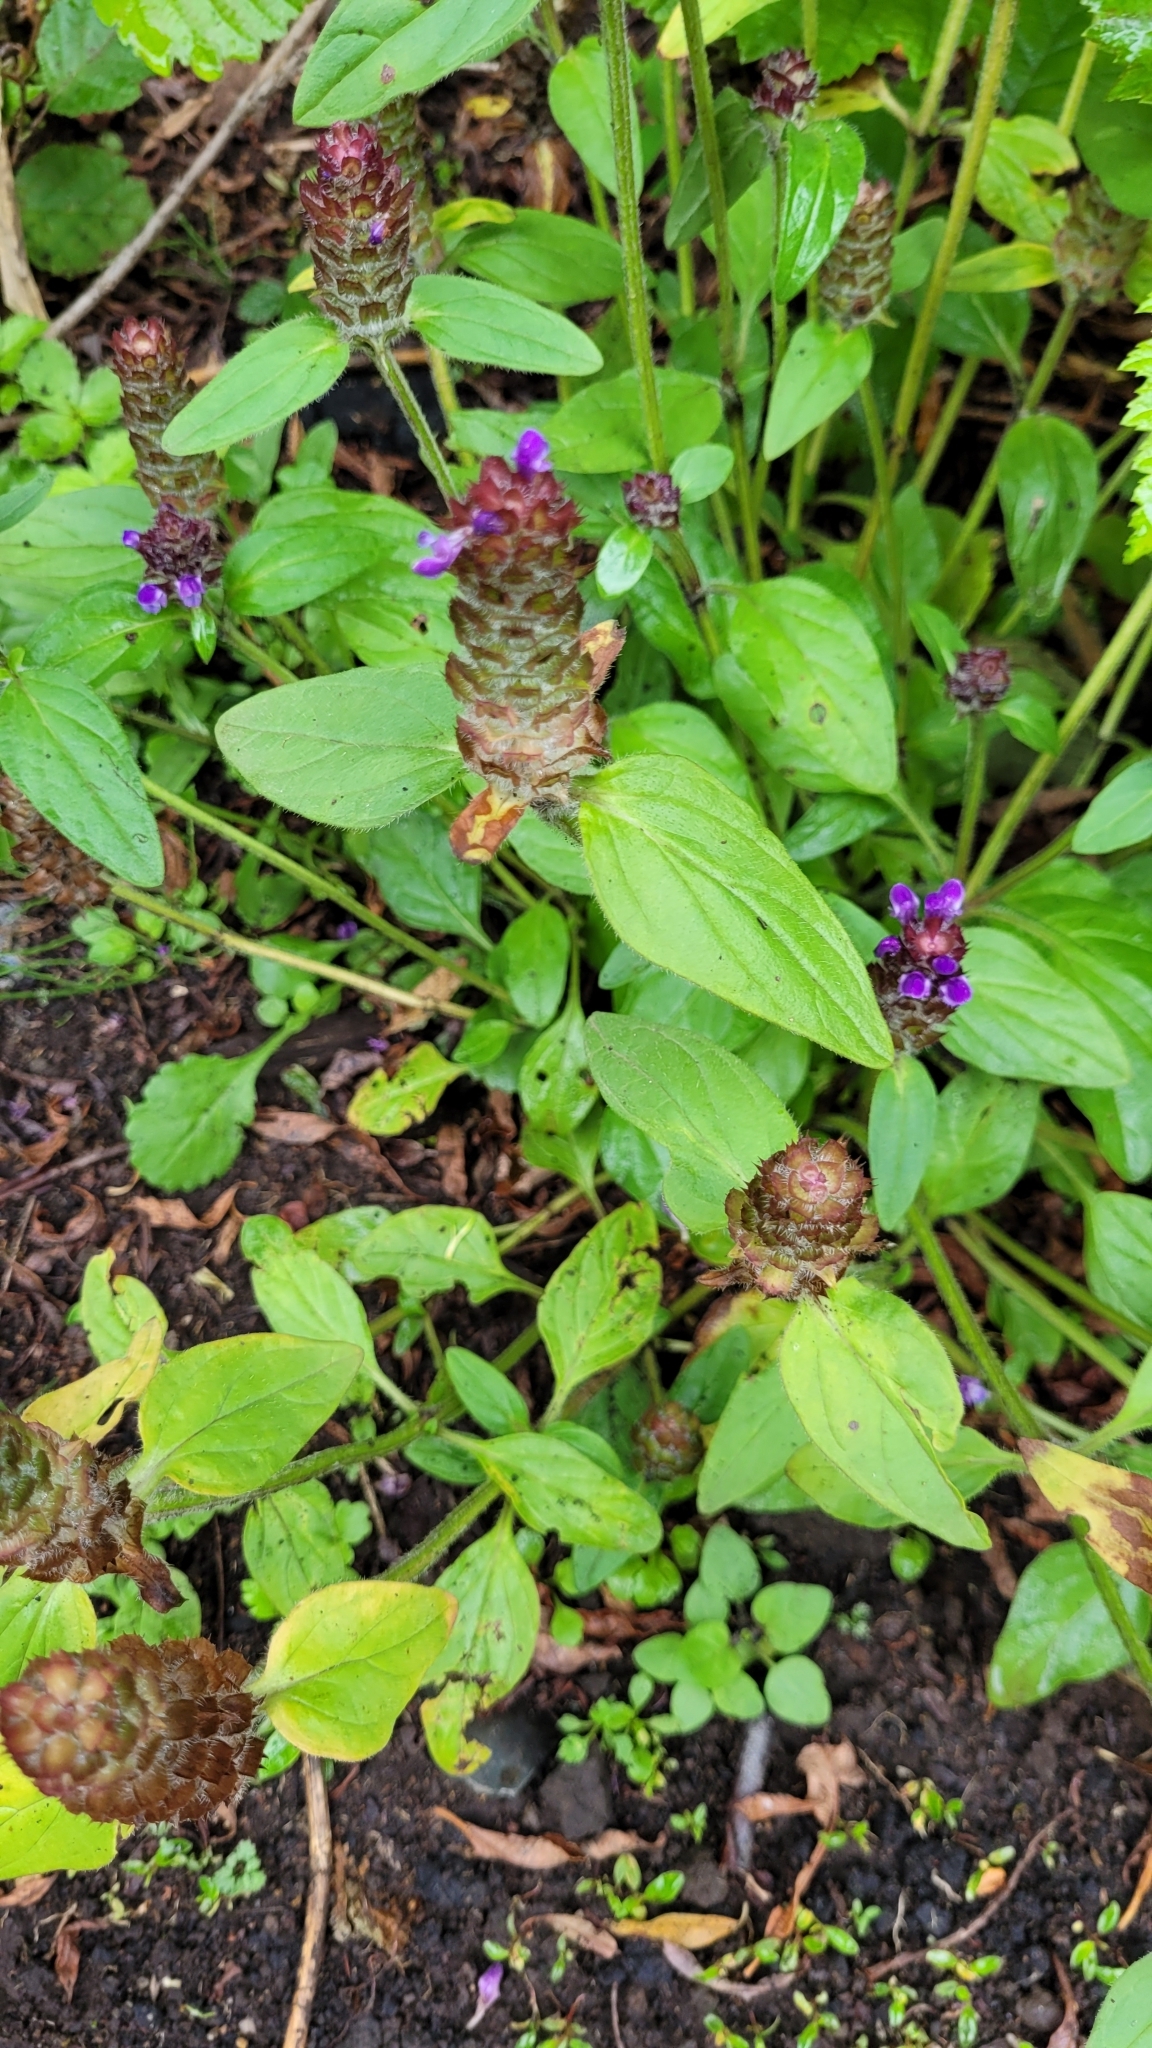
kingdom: Plantae
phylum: Tracheophyta
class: Magnoliopsida
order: Lamiales
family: Lamiaceae
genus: Prunella
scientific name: Prunella vulgaris
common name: Heal-all
